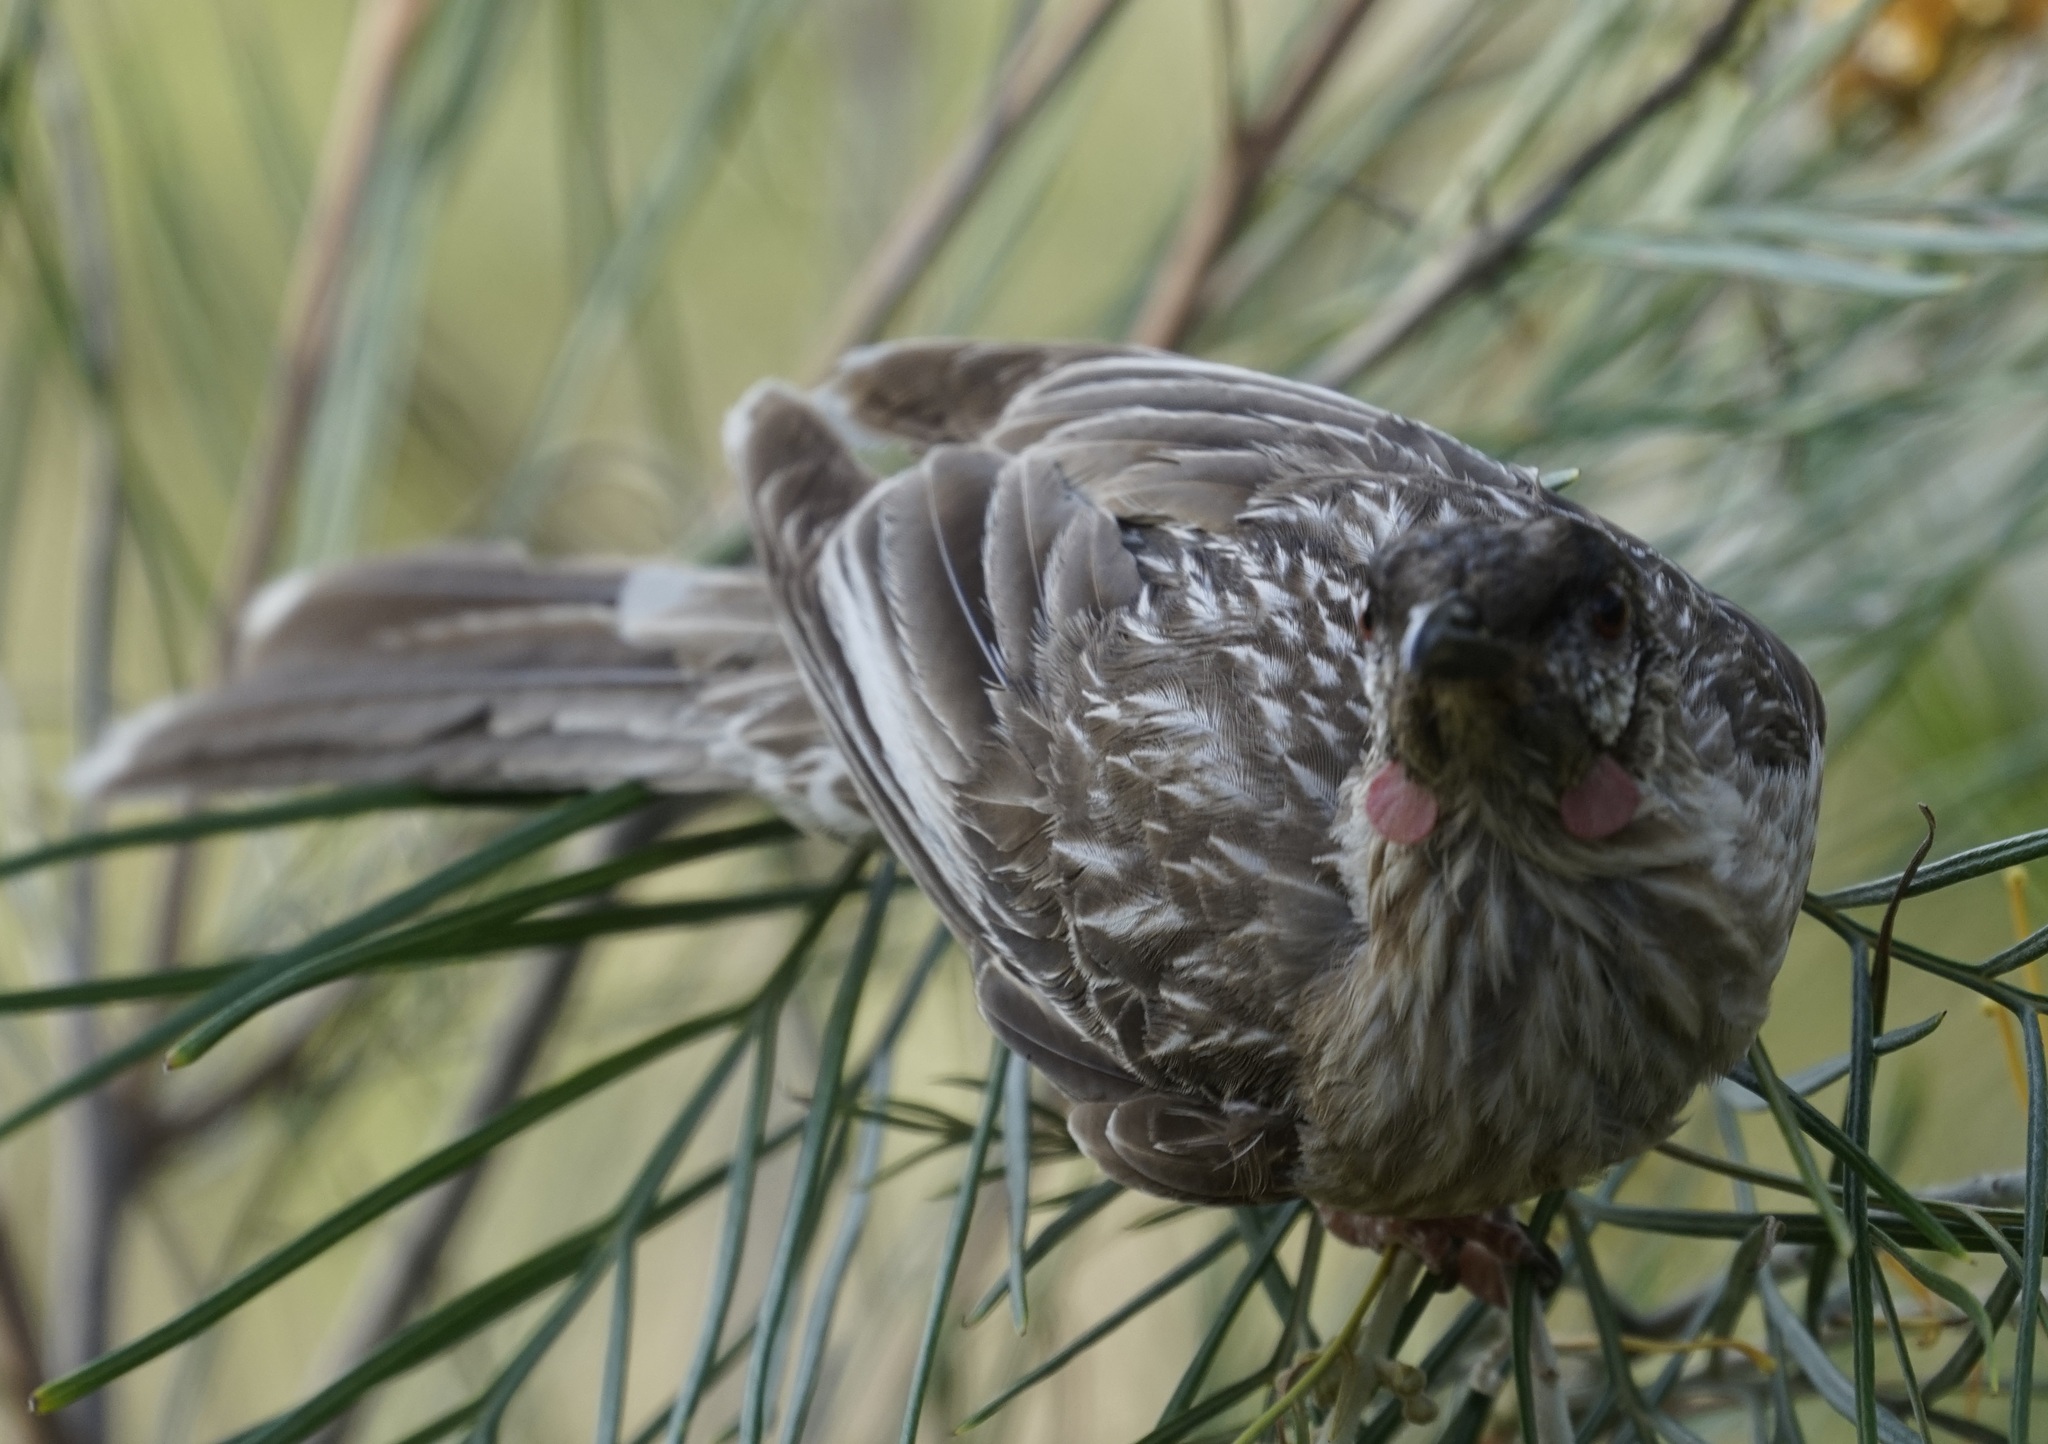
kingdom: Animalia
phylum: Chordata
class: Aves
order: Passeriformes
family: Meliphagidae
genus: Anthochaera
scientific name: Anthochaera carunculata
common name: Red wattlebird
